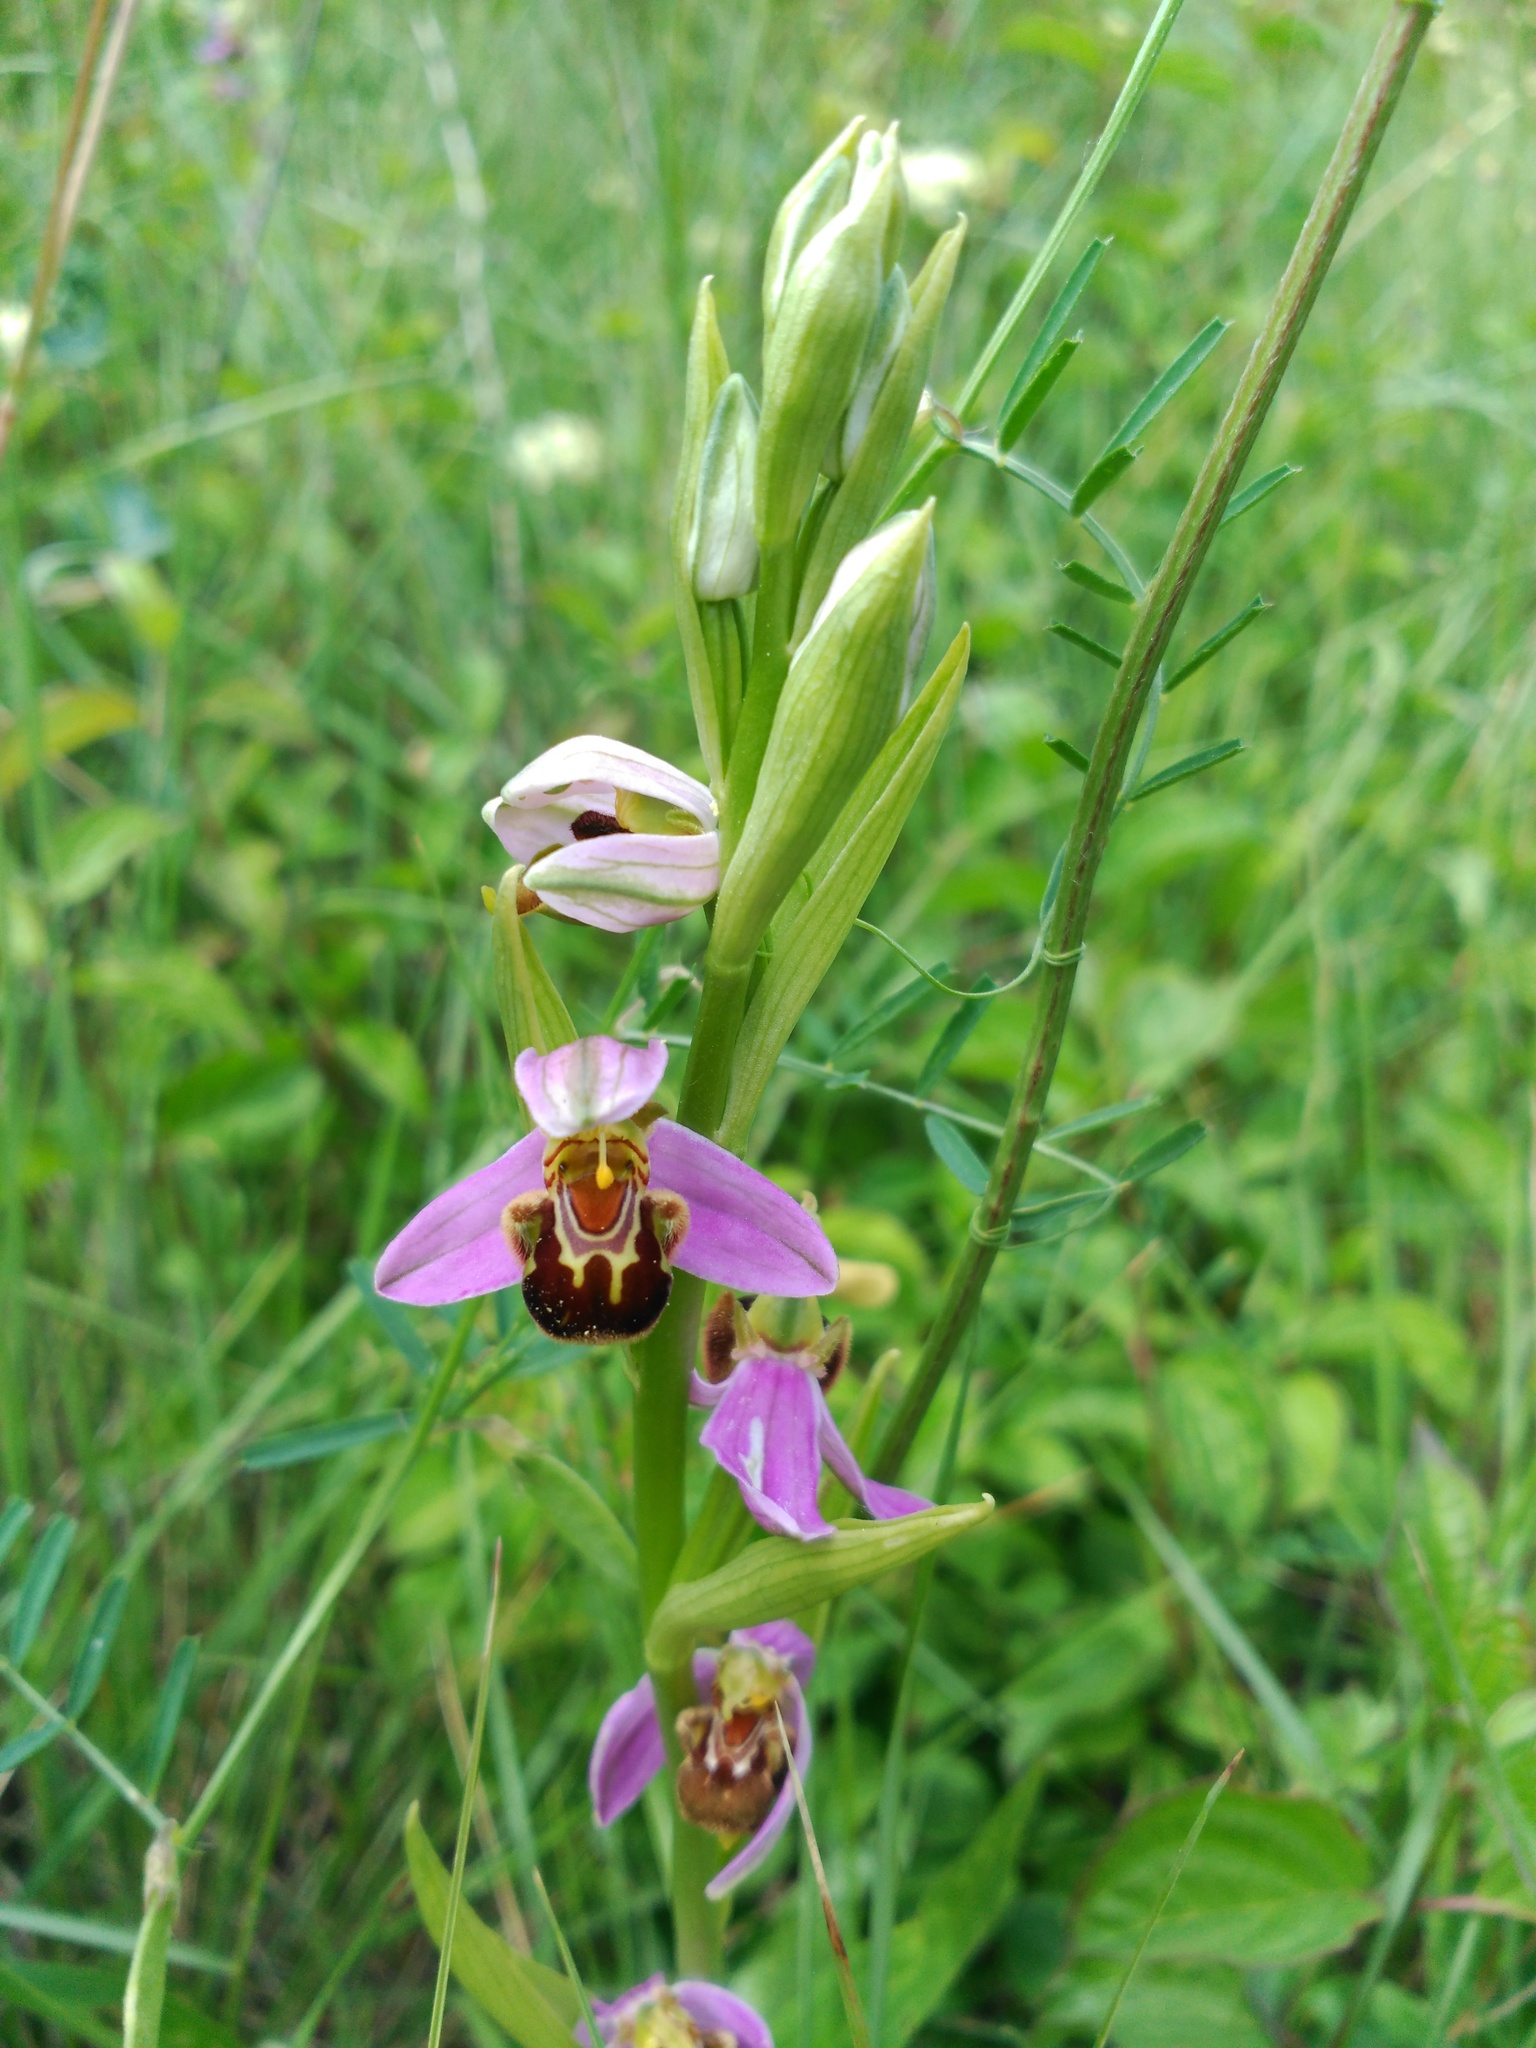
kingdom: Plantae
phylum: Tracheophyta
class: Liliopsida
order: Asparagales
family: Orchidaceae
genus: Ophrys
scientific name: Ophrys apifera
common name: Bee orchid
